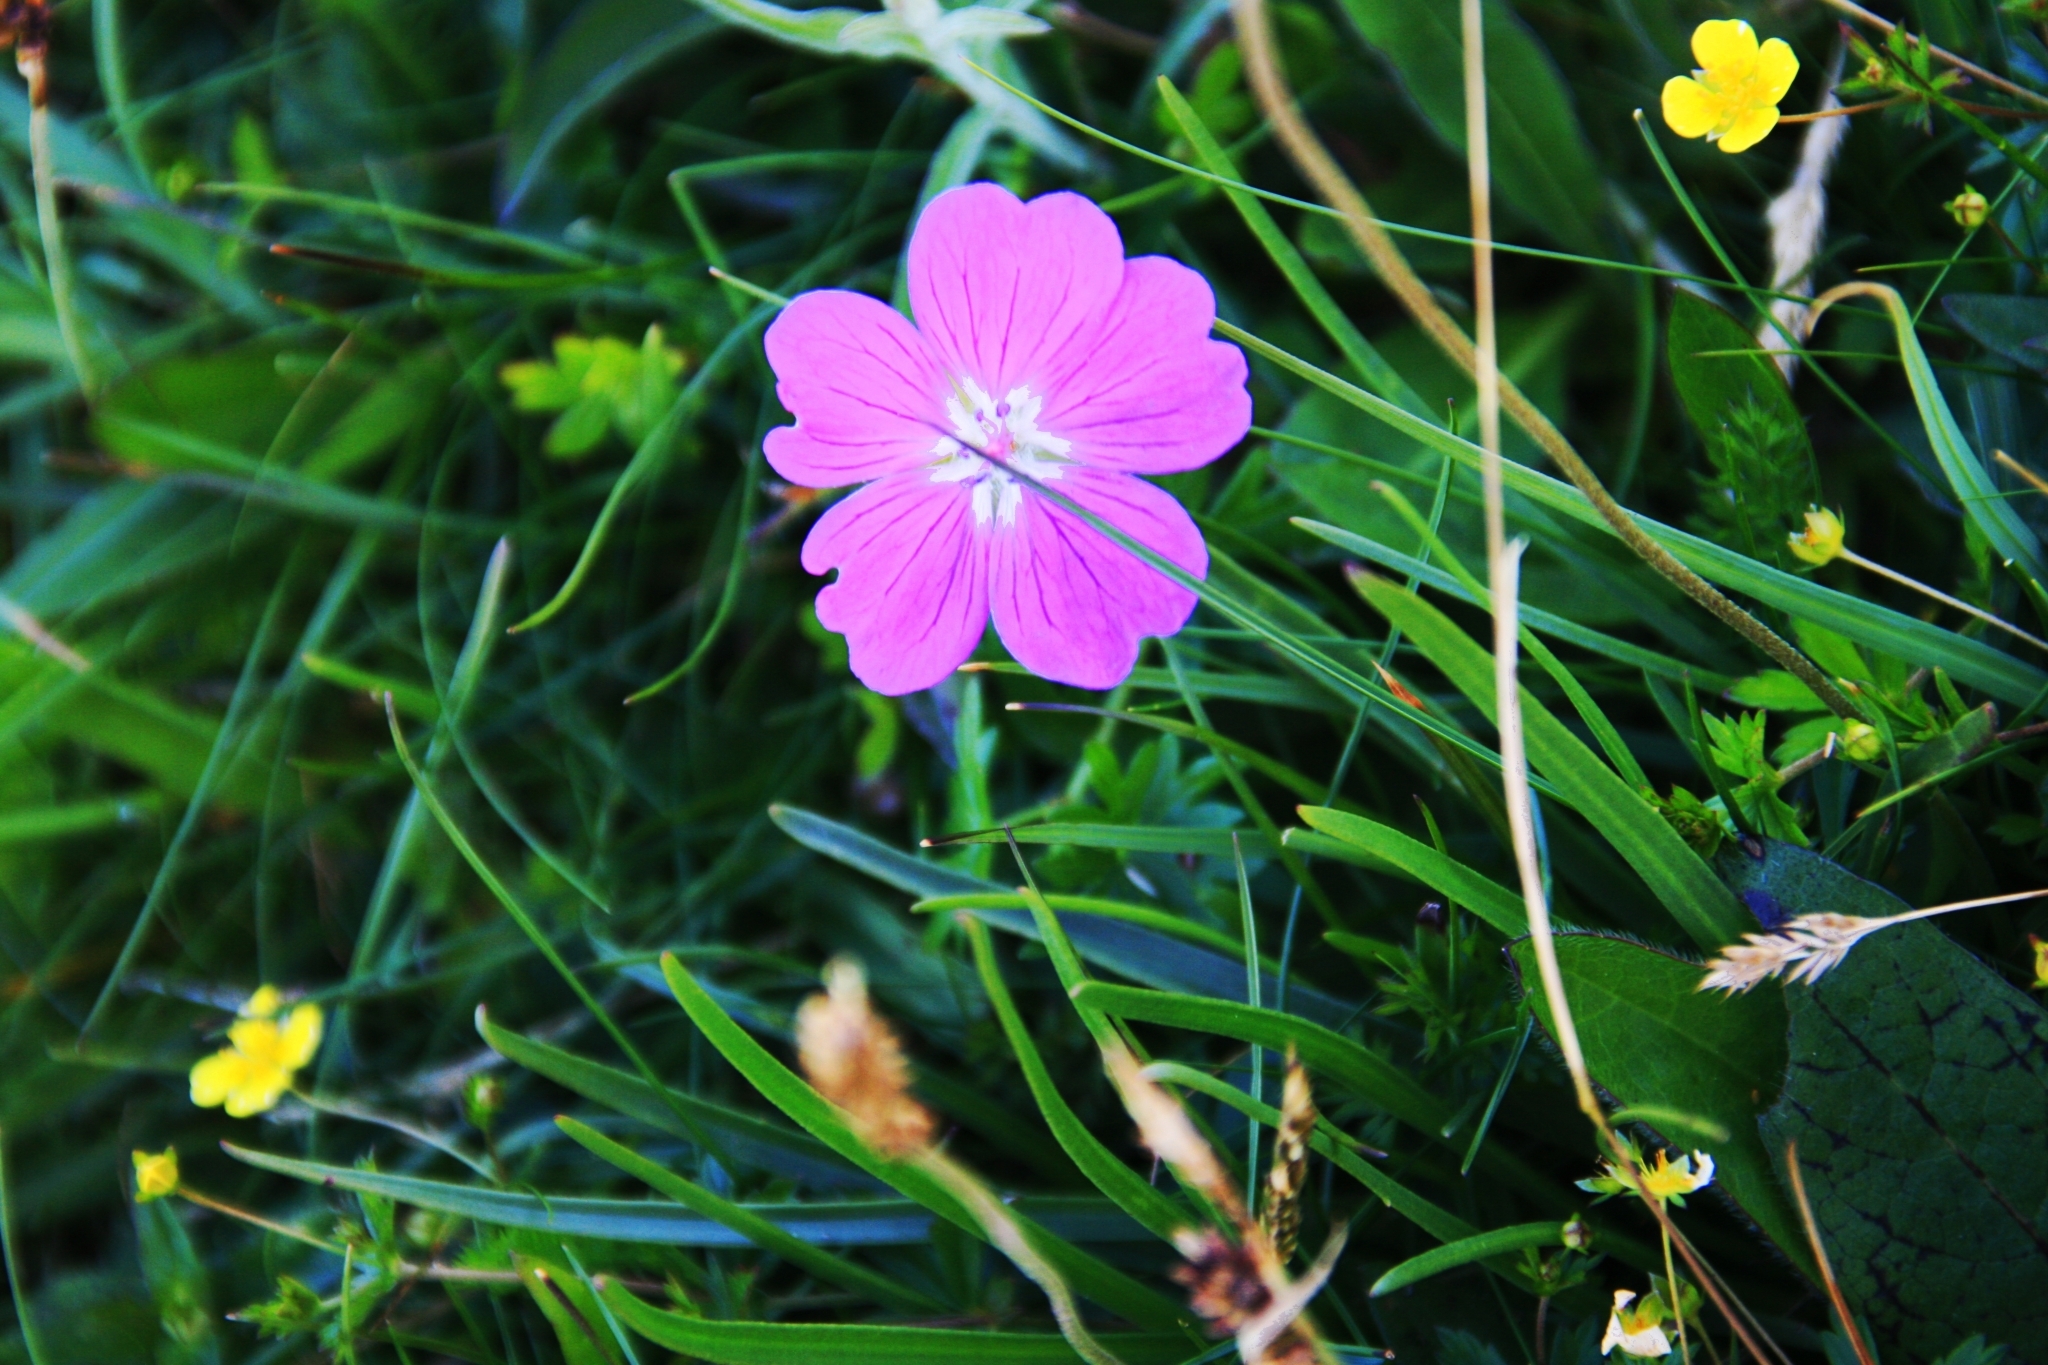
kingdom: Plantae
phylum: Tracheophyta
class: Magnoliopsida
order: Geraniales
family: Geraniaceae
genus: Geranium
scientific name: Geranium sanguineum
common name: Bloody crane's-bill
